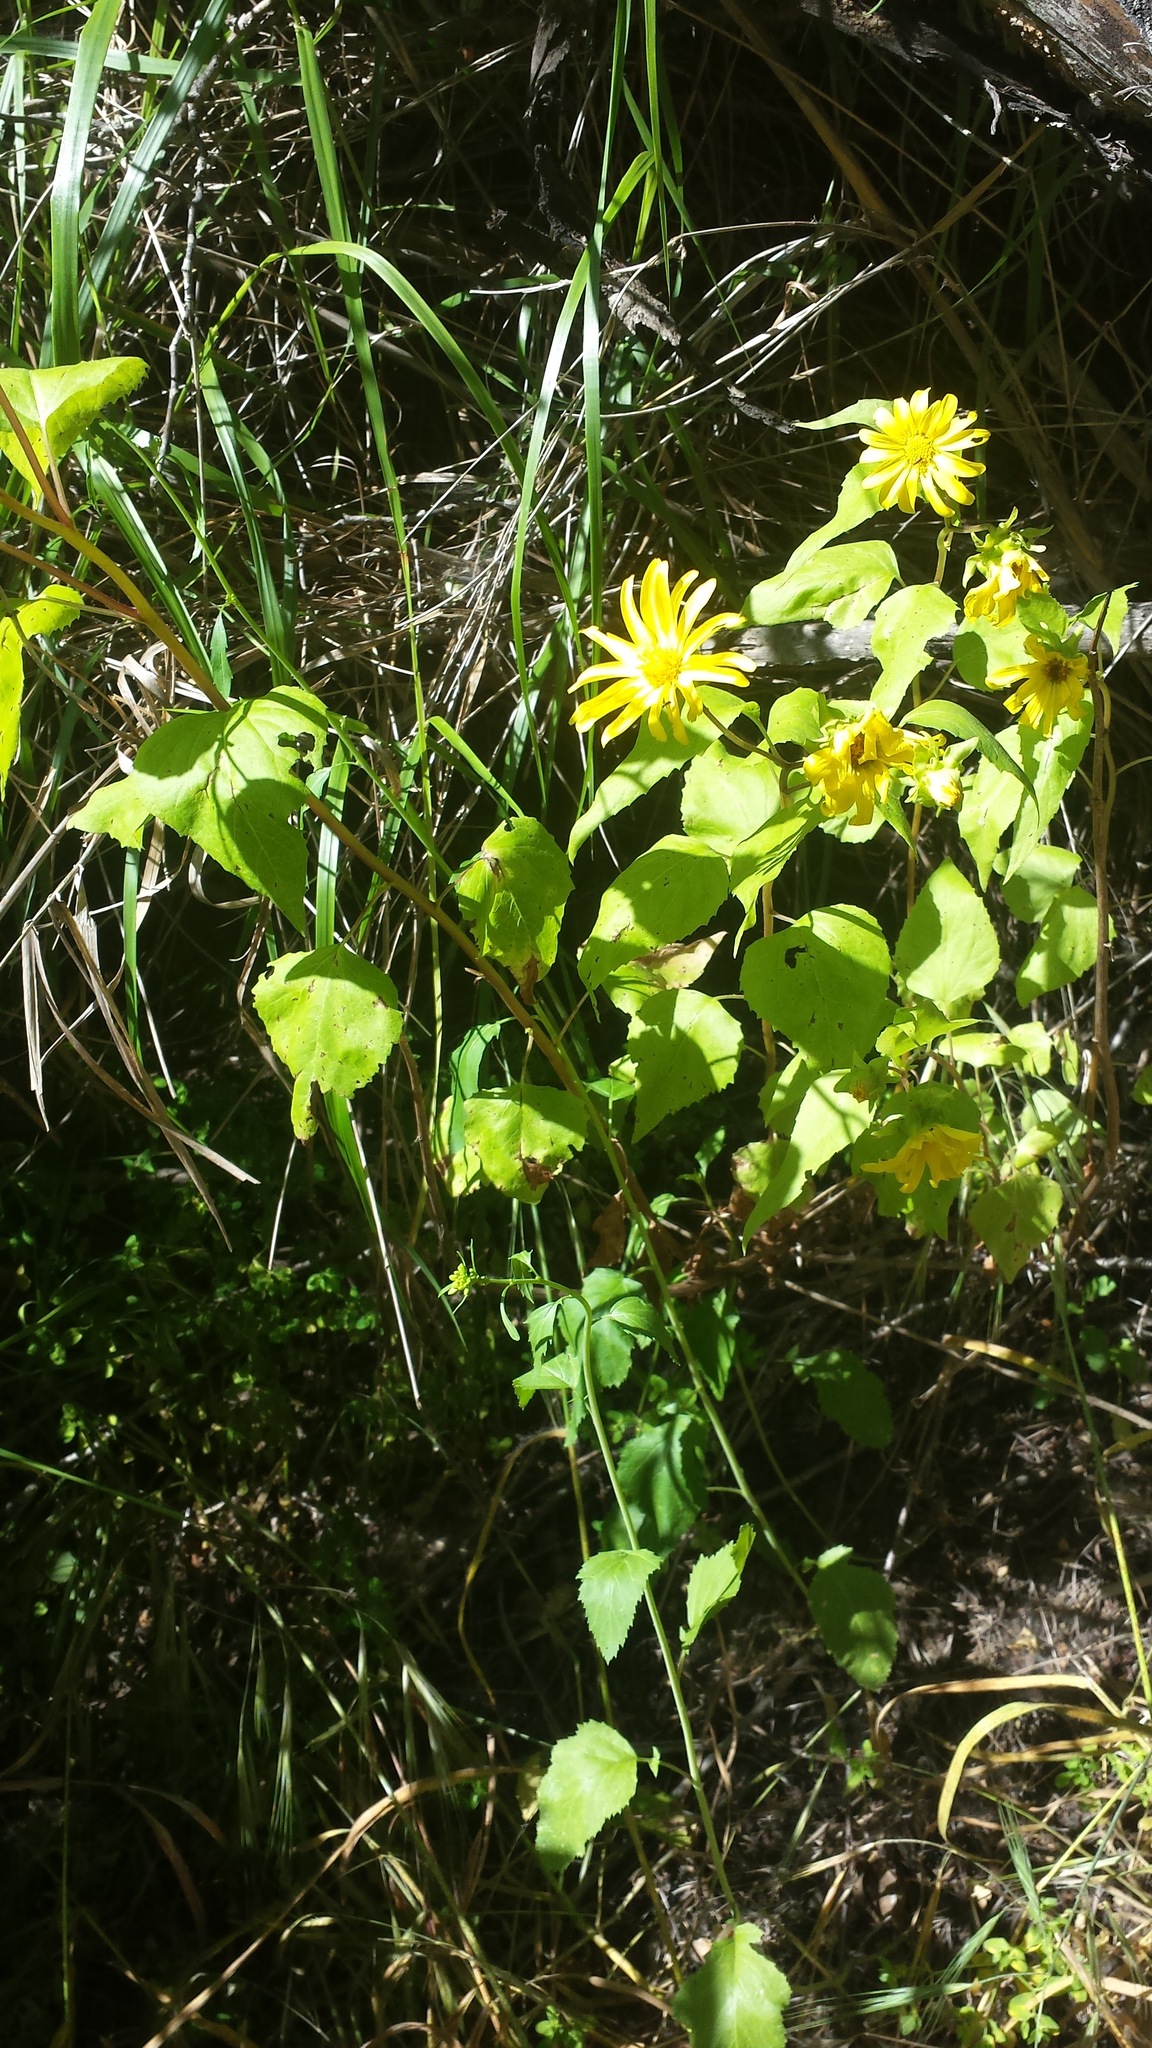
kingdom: Plantae
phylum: Tracheophyta
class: Magnoliopsida
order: Asterales
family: Asteraceae
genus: Venegasia
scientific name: Venegasia carpesioides
